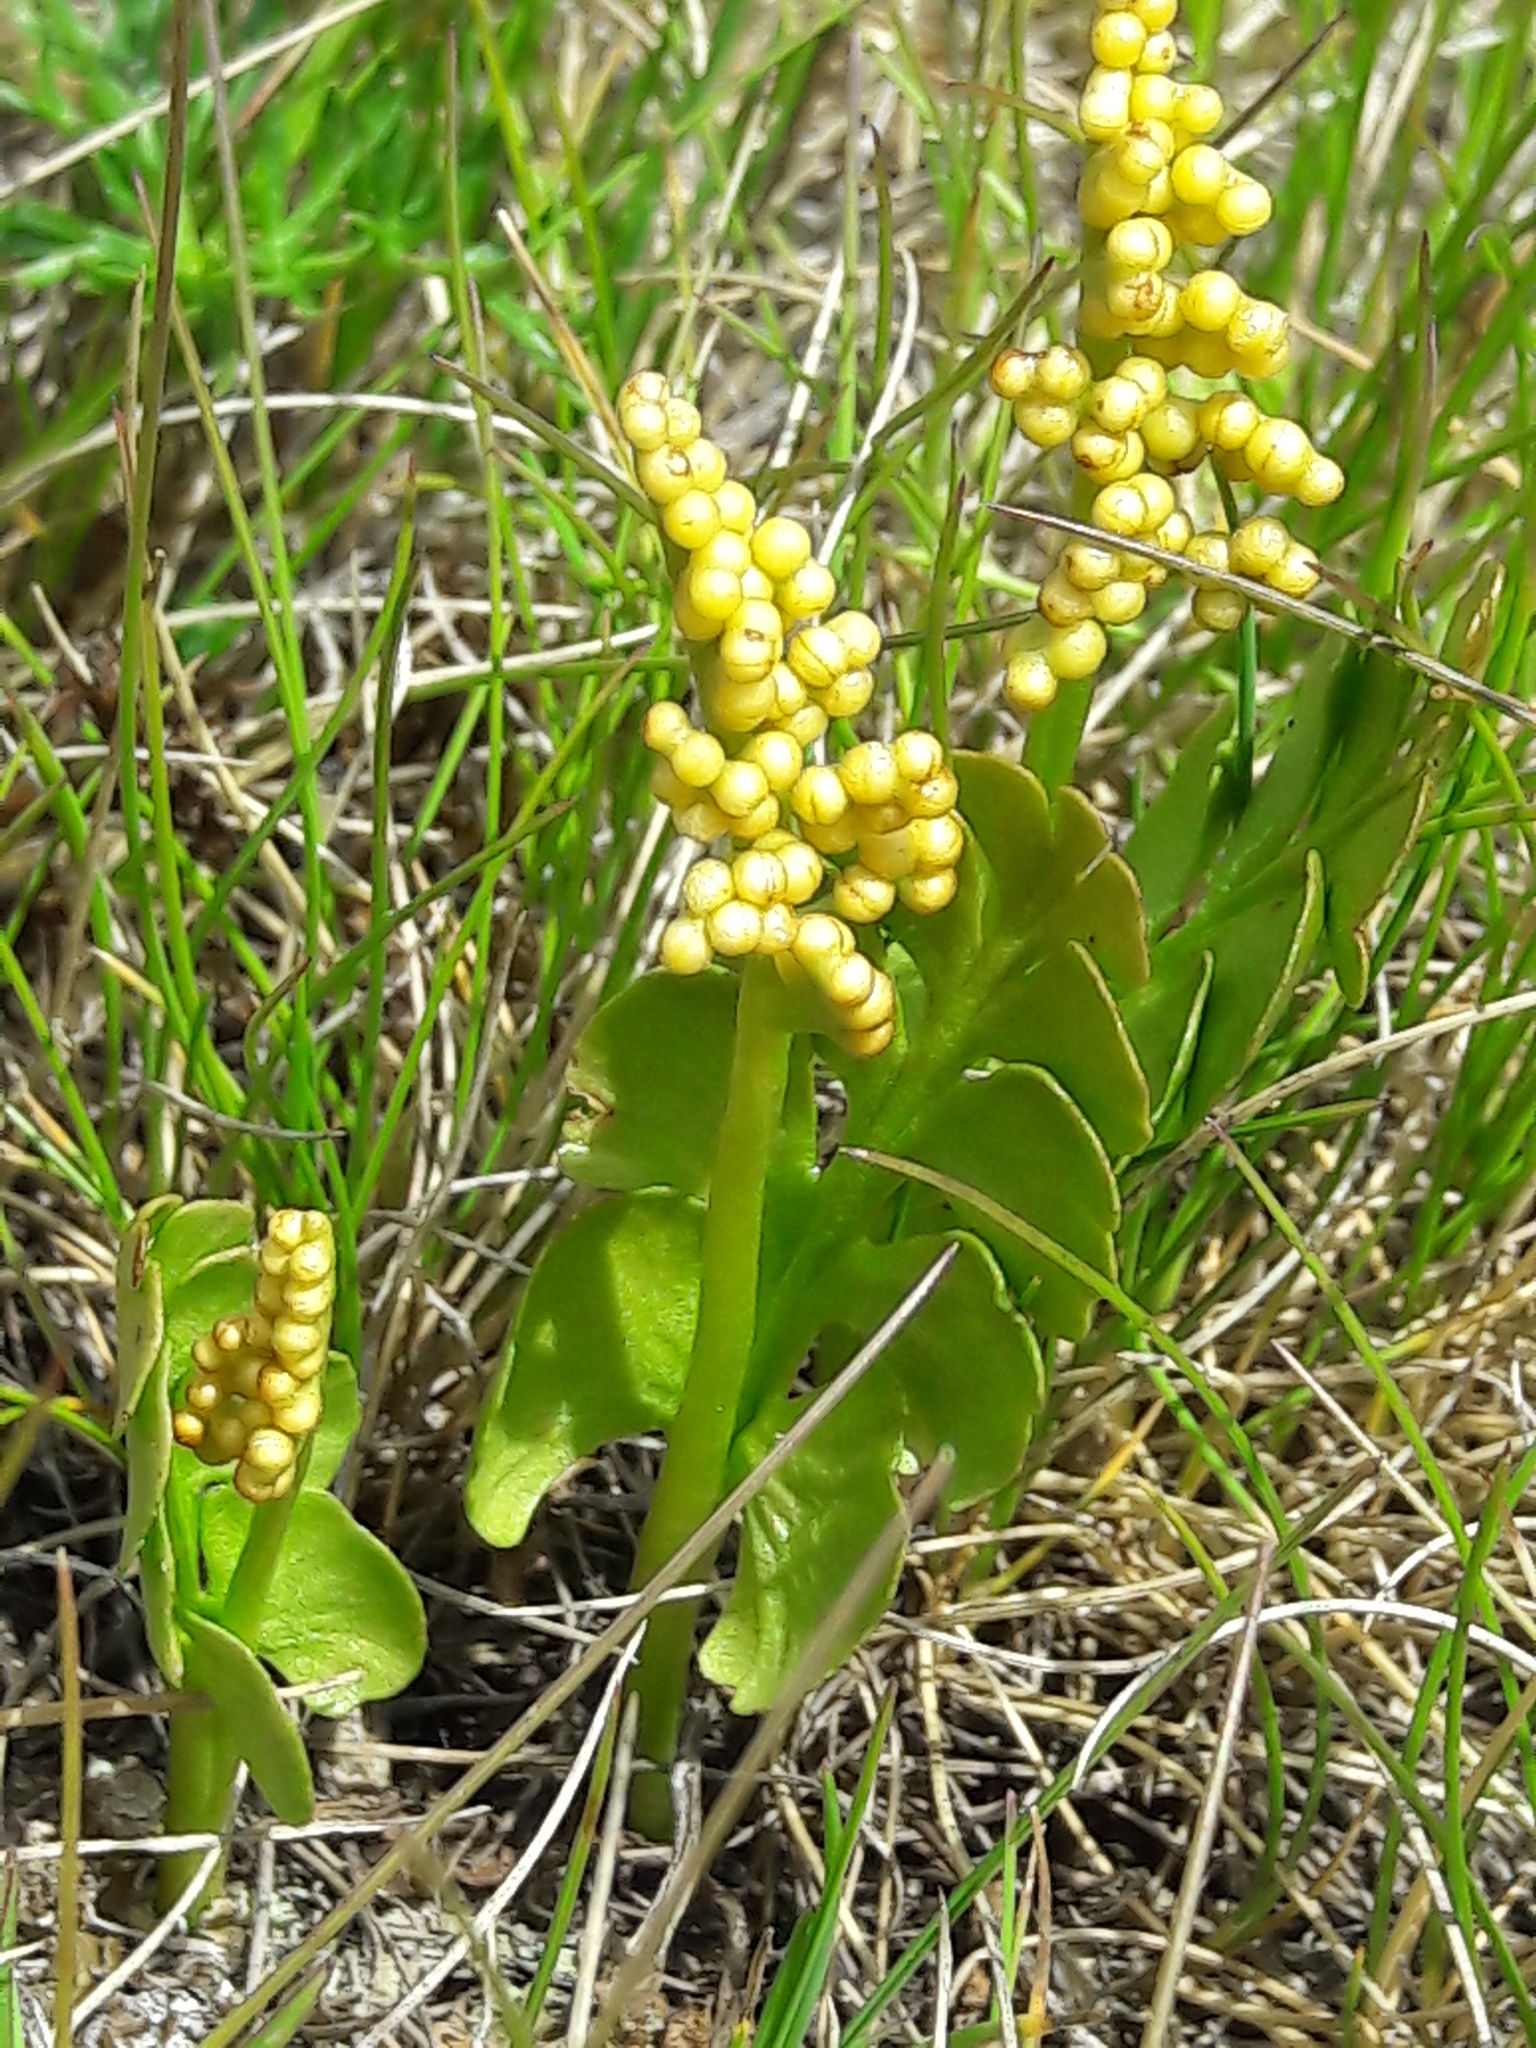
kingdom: Plantae
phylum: Tracheophyta
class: Polypodiopsida
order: Ophioglossales
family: Ophioglossaceae
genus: Botrychium
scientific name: Botrychium lunaria
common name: Moonwort
